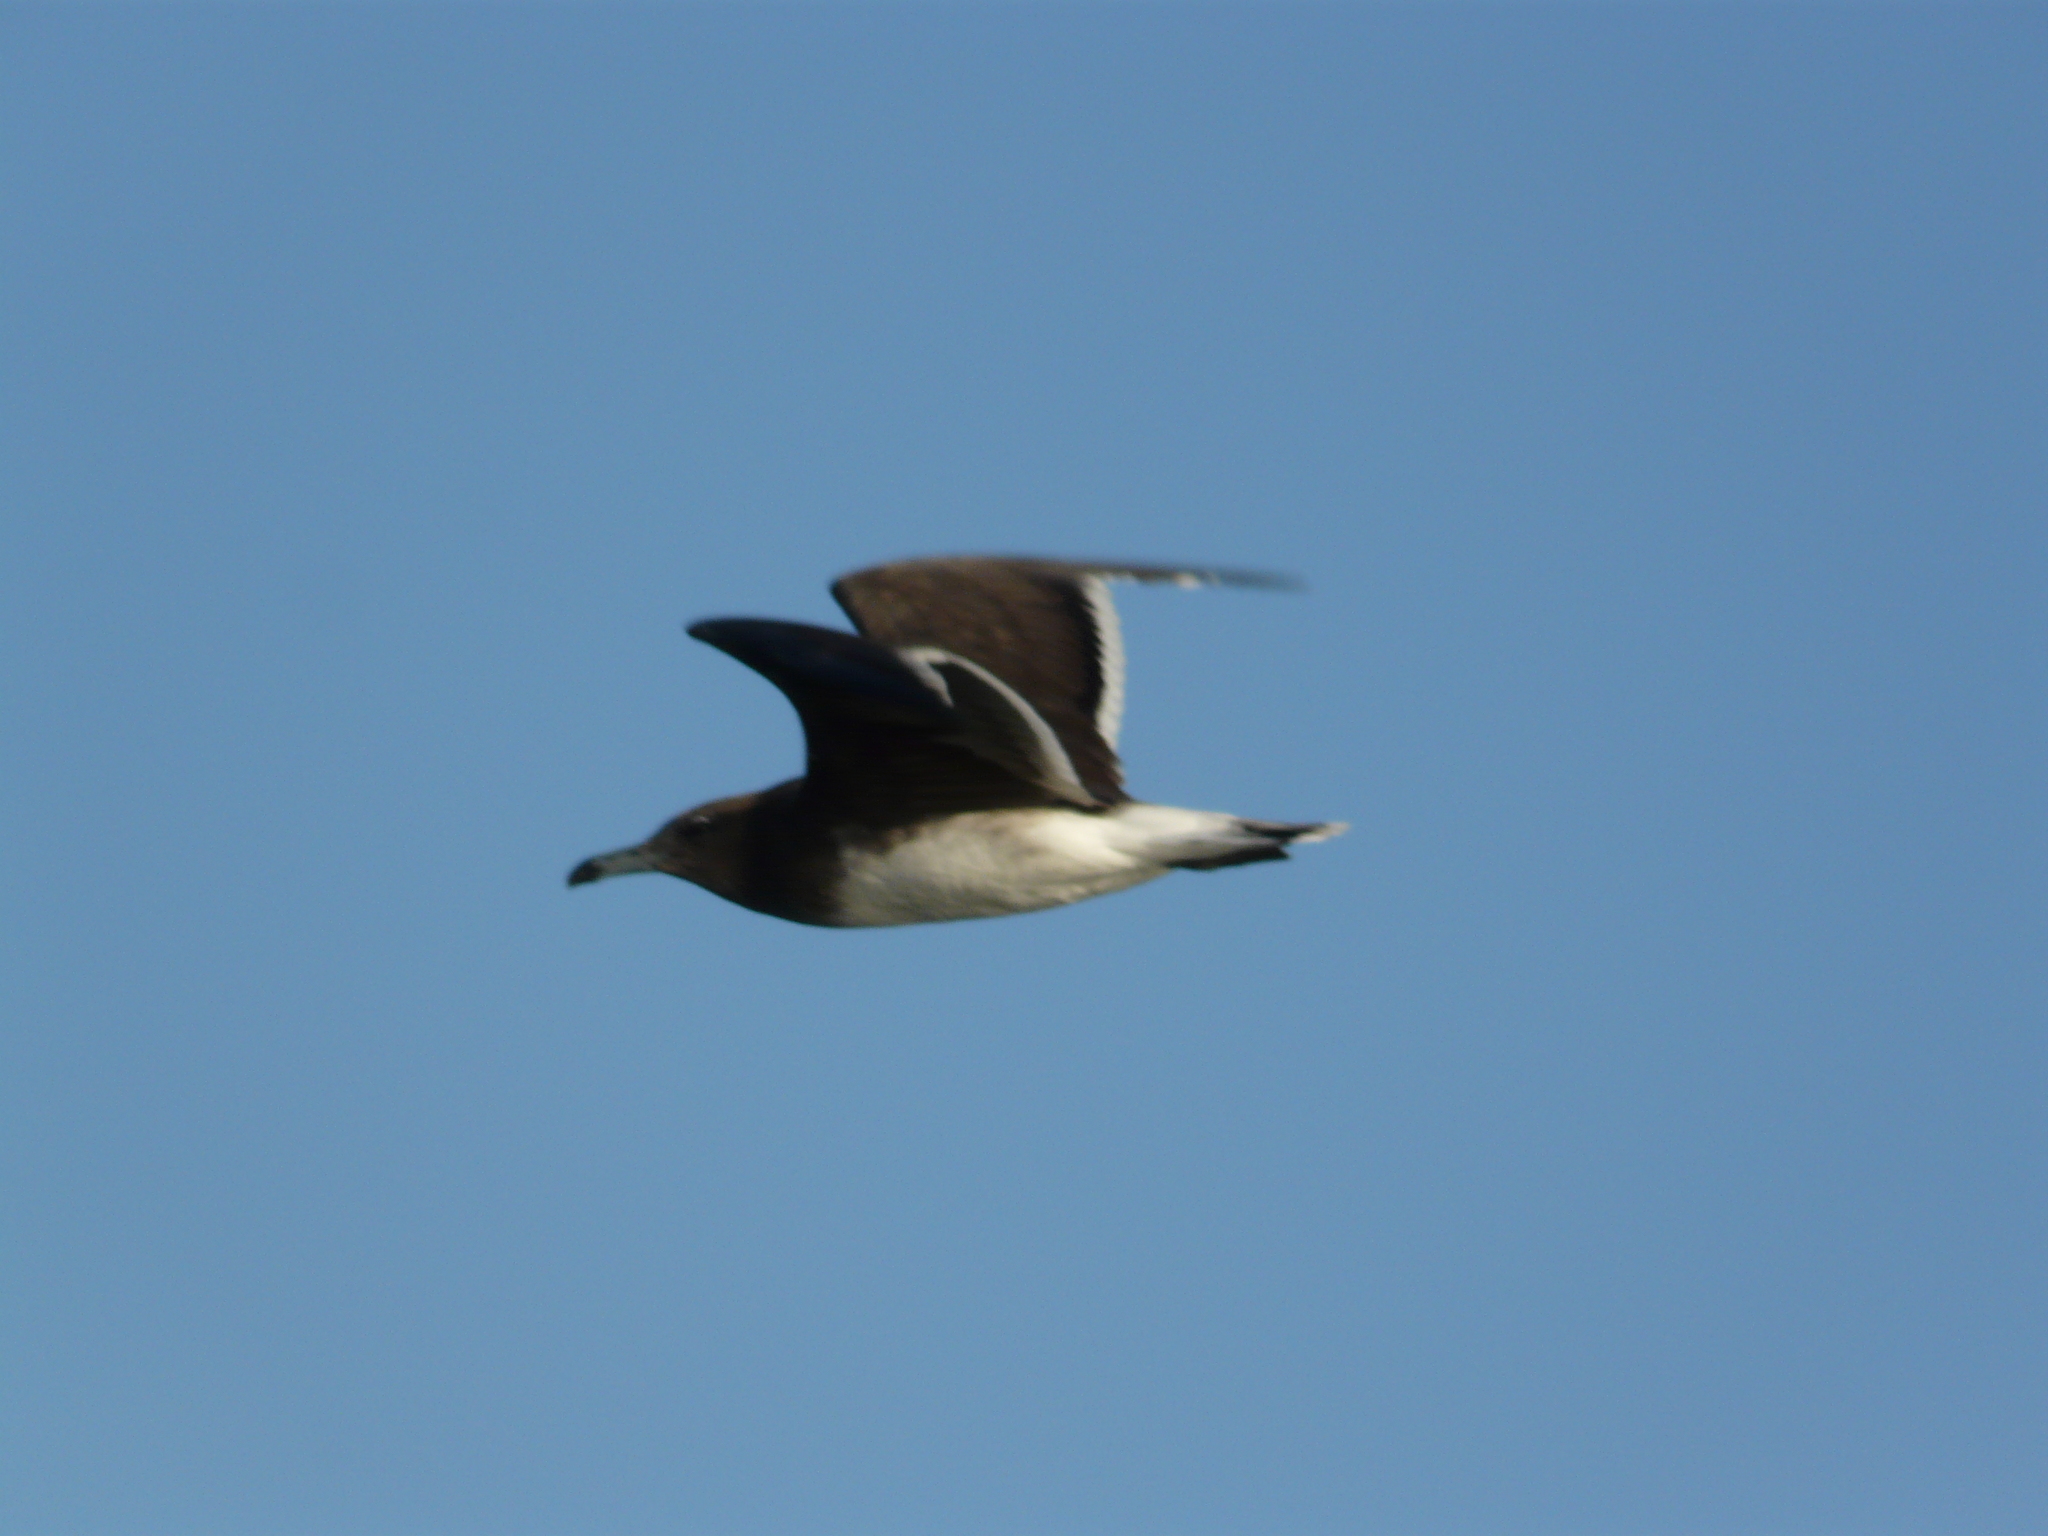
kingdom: Animalia
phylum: Chordata
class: Aves
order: Charadriiformes
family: Laridae
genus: Ichthyaetus
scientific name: Ichthyaetus hemprichii
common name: Sooty gull
